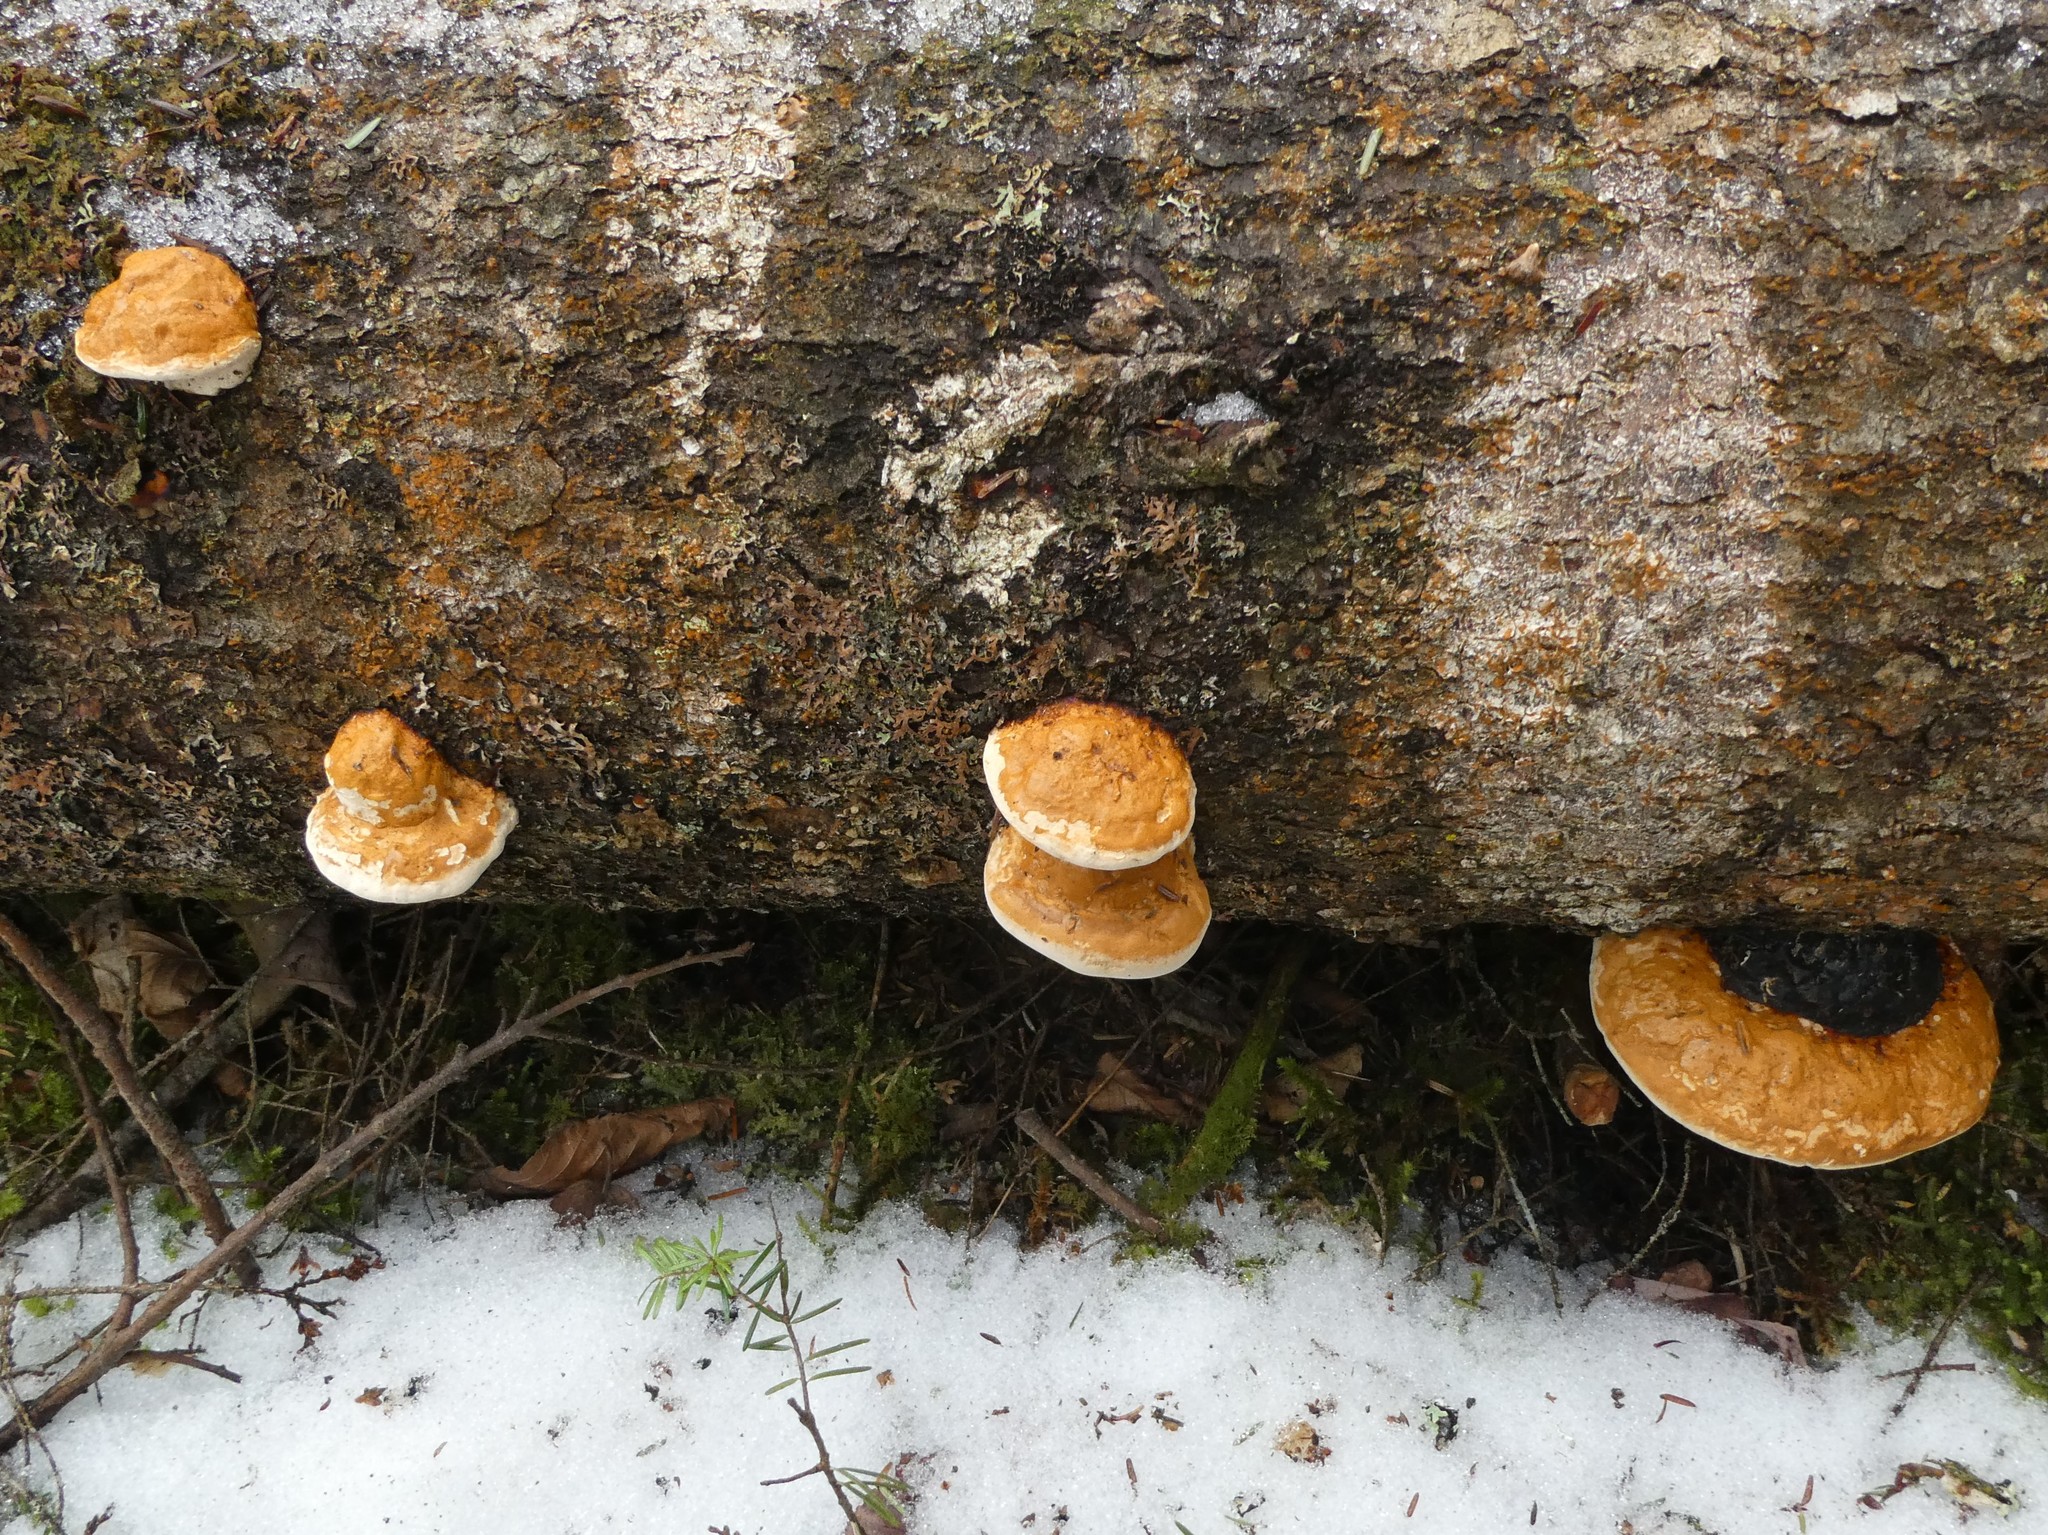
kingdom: Fungi
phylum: Basidiomycota
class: Agaricomycetes
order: Polyporales
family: Fomitopsidaceae
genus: Fomitopsis
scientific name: Fomitopsis mounceae
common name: Northern red belt
